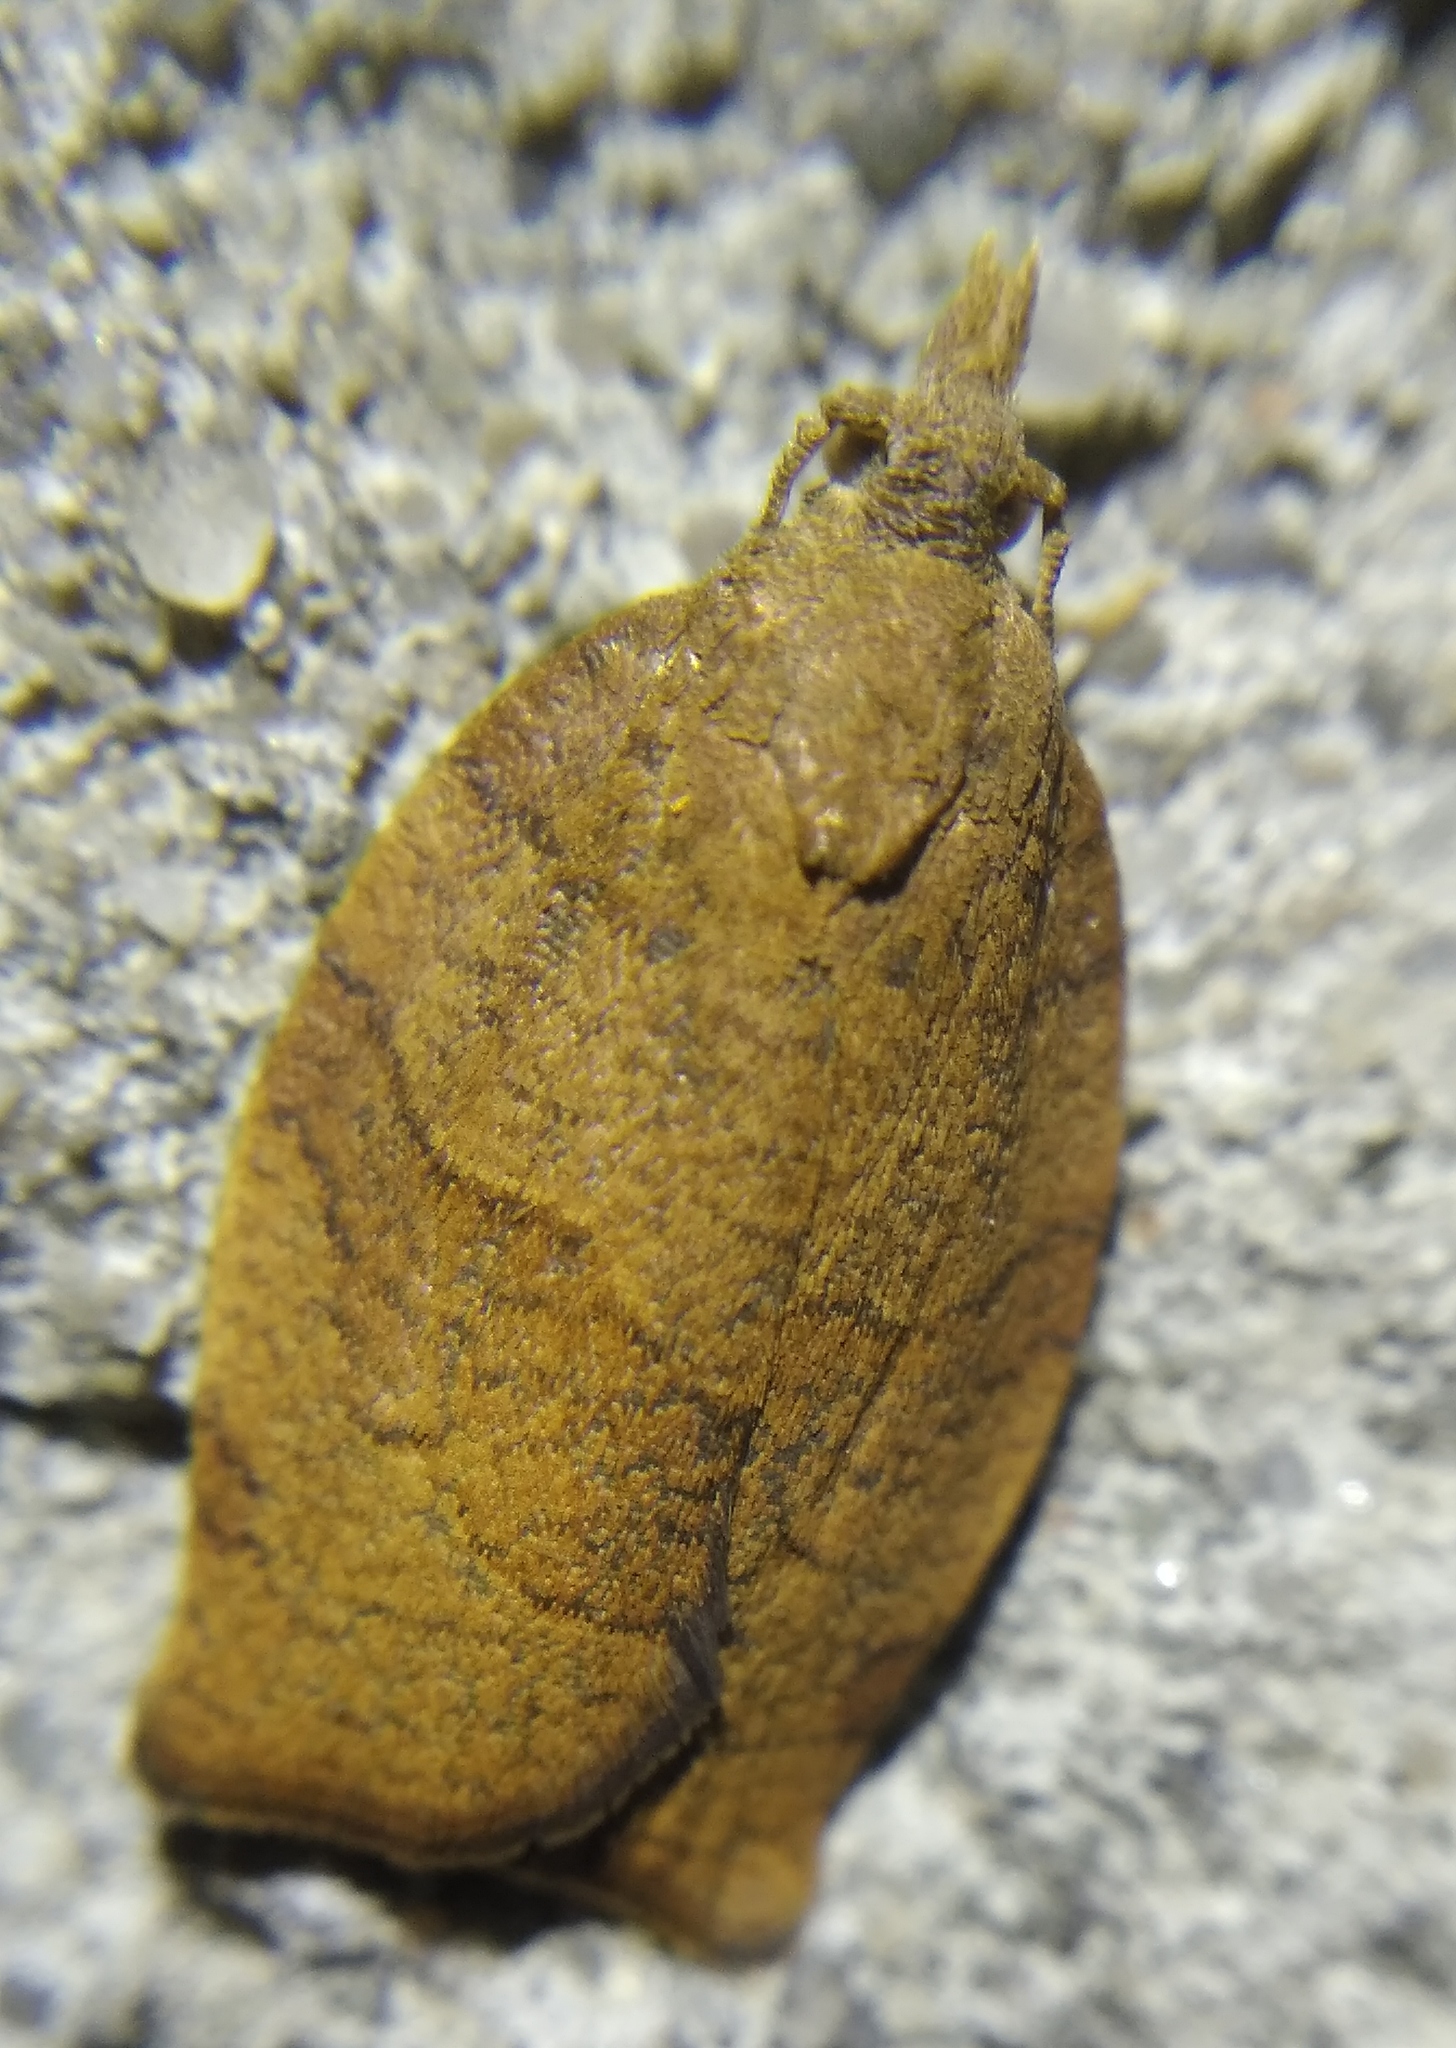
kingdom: Animalia
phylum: Arthropoda
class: Insecta
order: Lepidoptera
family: Tortricidae
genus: Pandemis
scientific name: Pandemis heparana
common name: Dark fruit-tree tortrix
